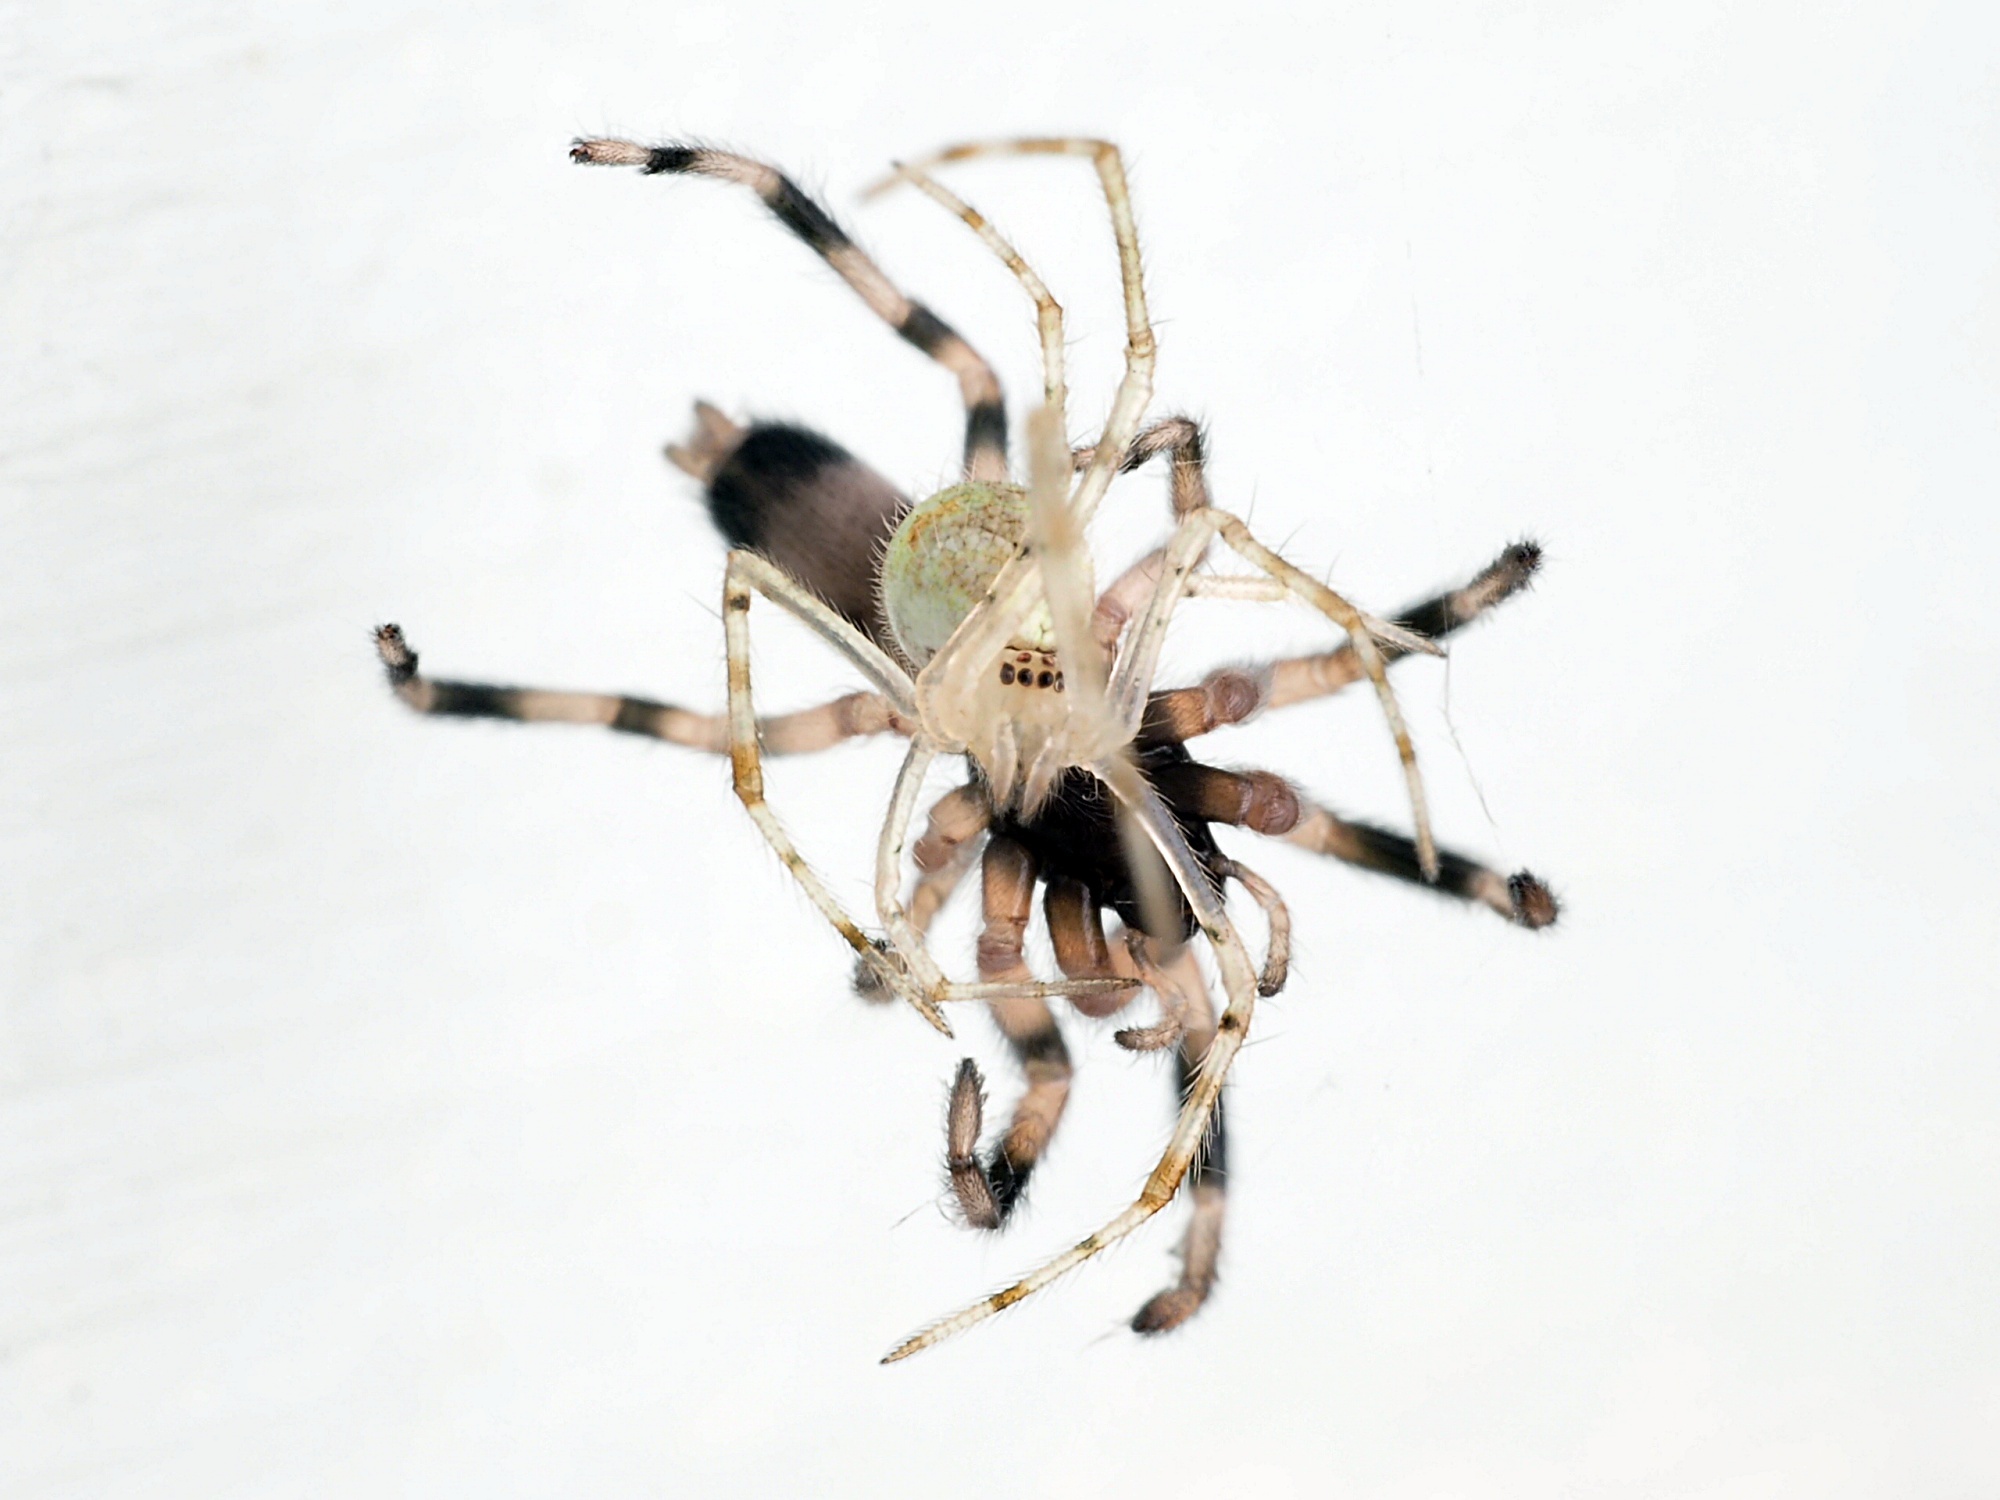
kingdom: Animalia
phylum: Arthropoda
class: Arachnida
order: Araneae
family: Lamponidae
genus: Lampona
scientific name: Lampona murina
